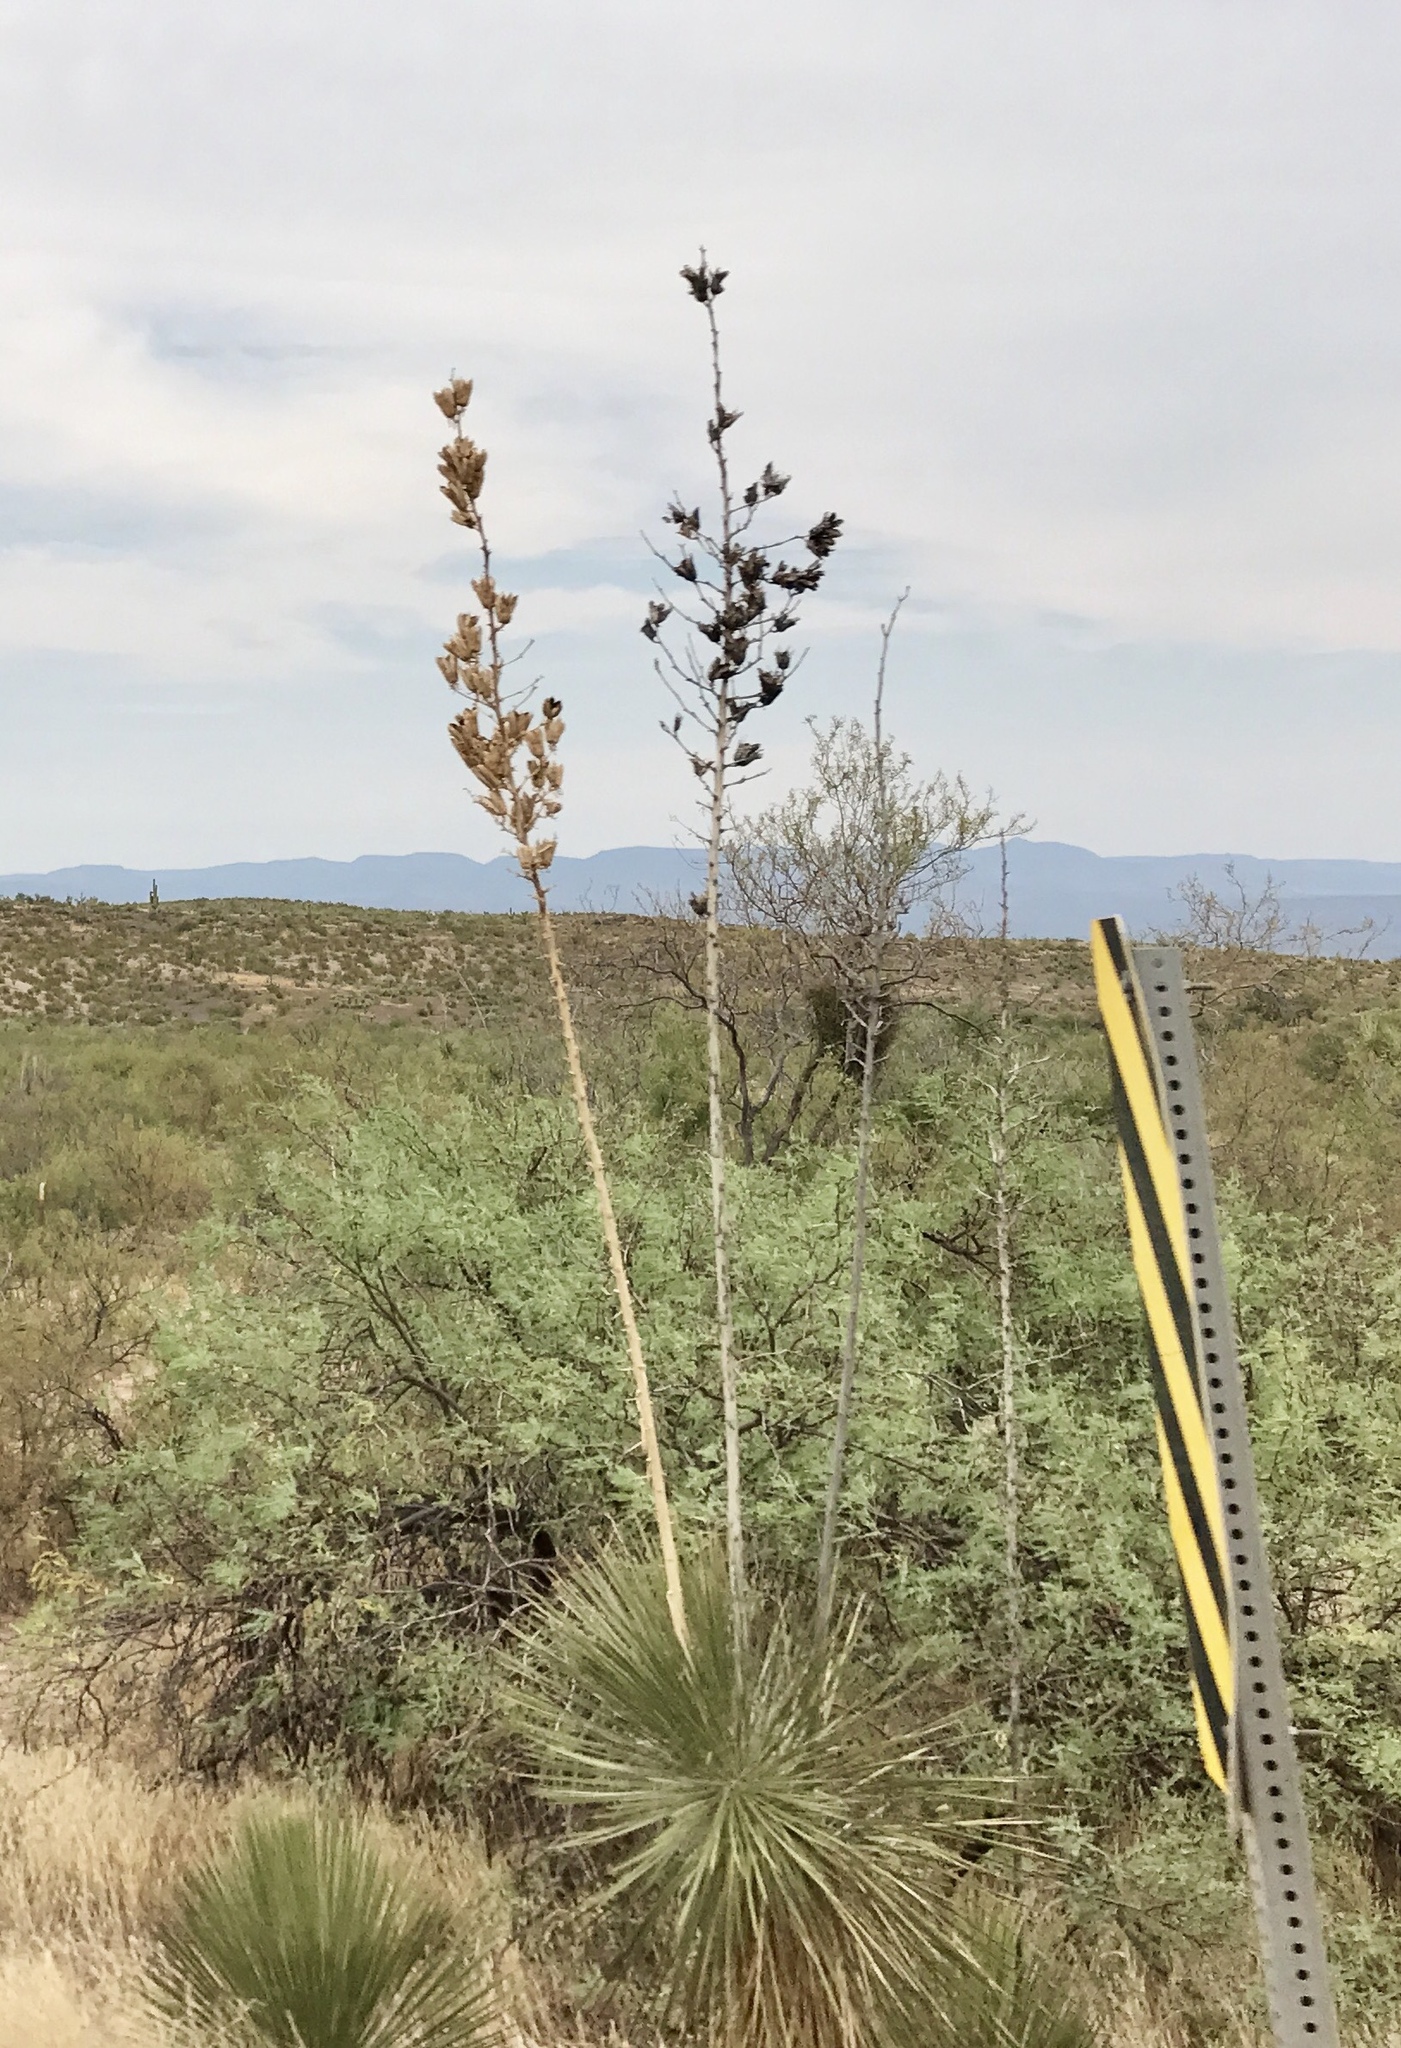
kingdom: Plantae
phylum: Tracheophyta
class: Liliopsida
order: Asparagales
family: Asparagaceae
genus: Yucca
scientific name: Yucca elata
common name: Palmella
